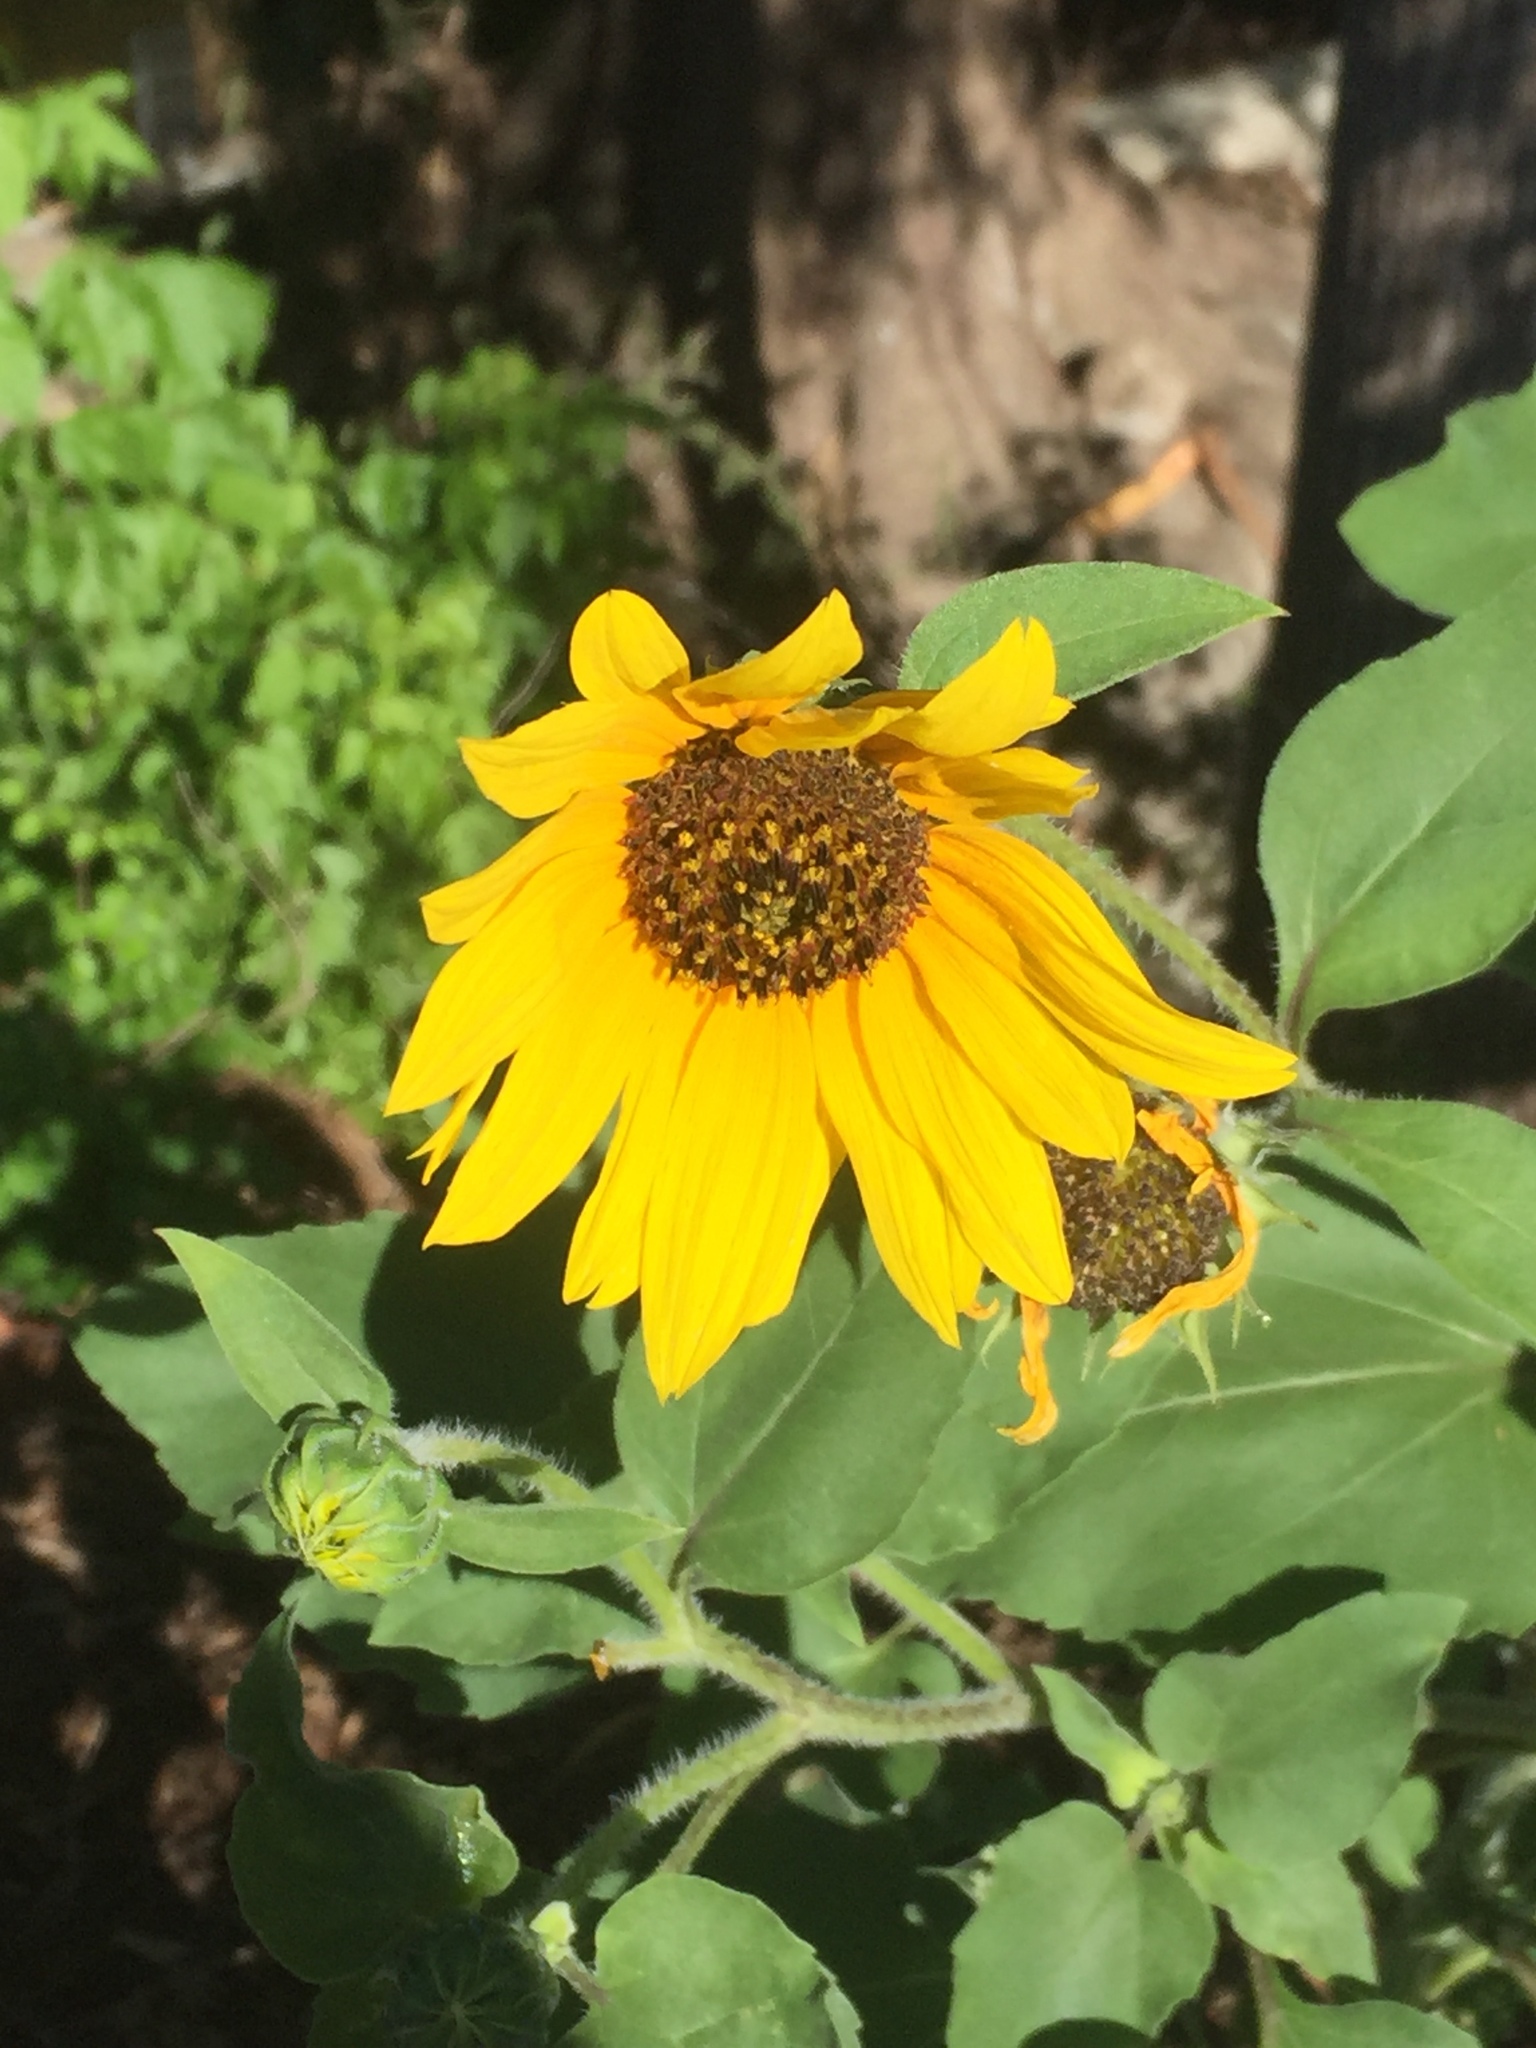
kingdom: Plantae
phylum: Tracheophyta
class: Magnoliopsida
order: Asterales
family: Asteraceae
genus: Helianthus
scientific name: Helianthus annuus
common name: Sunflower
